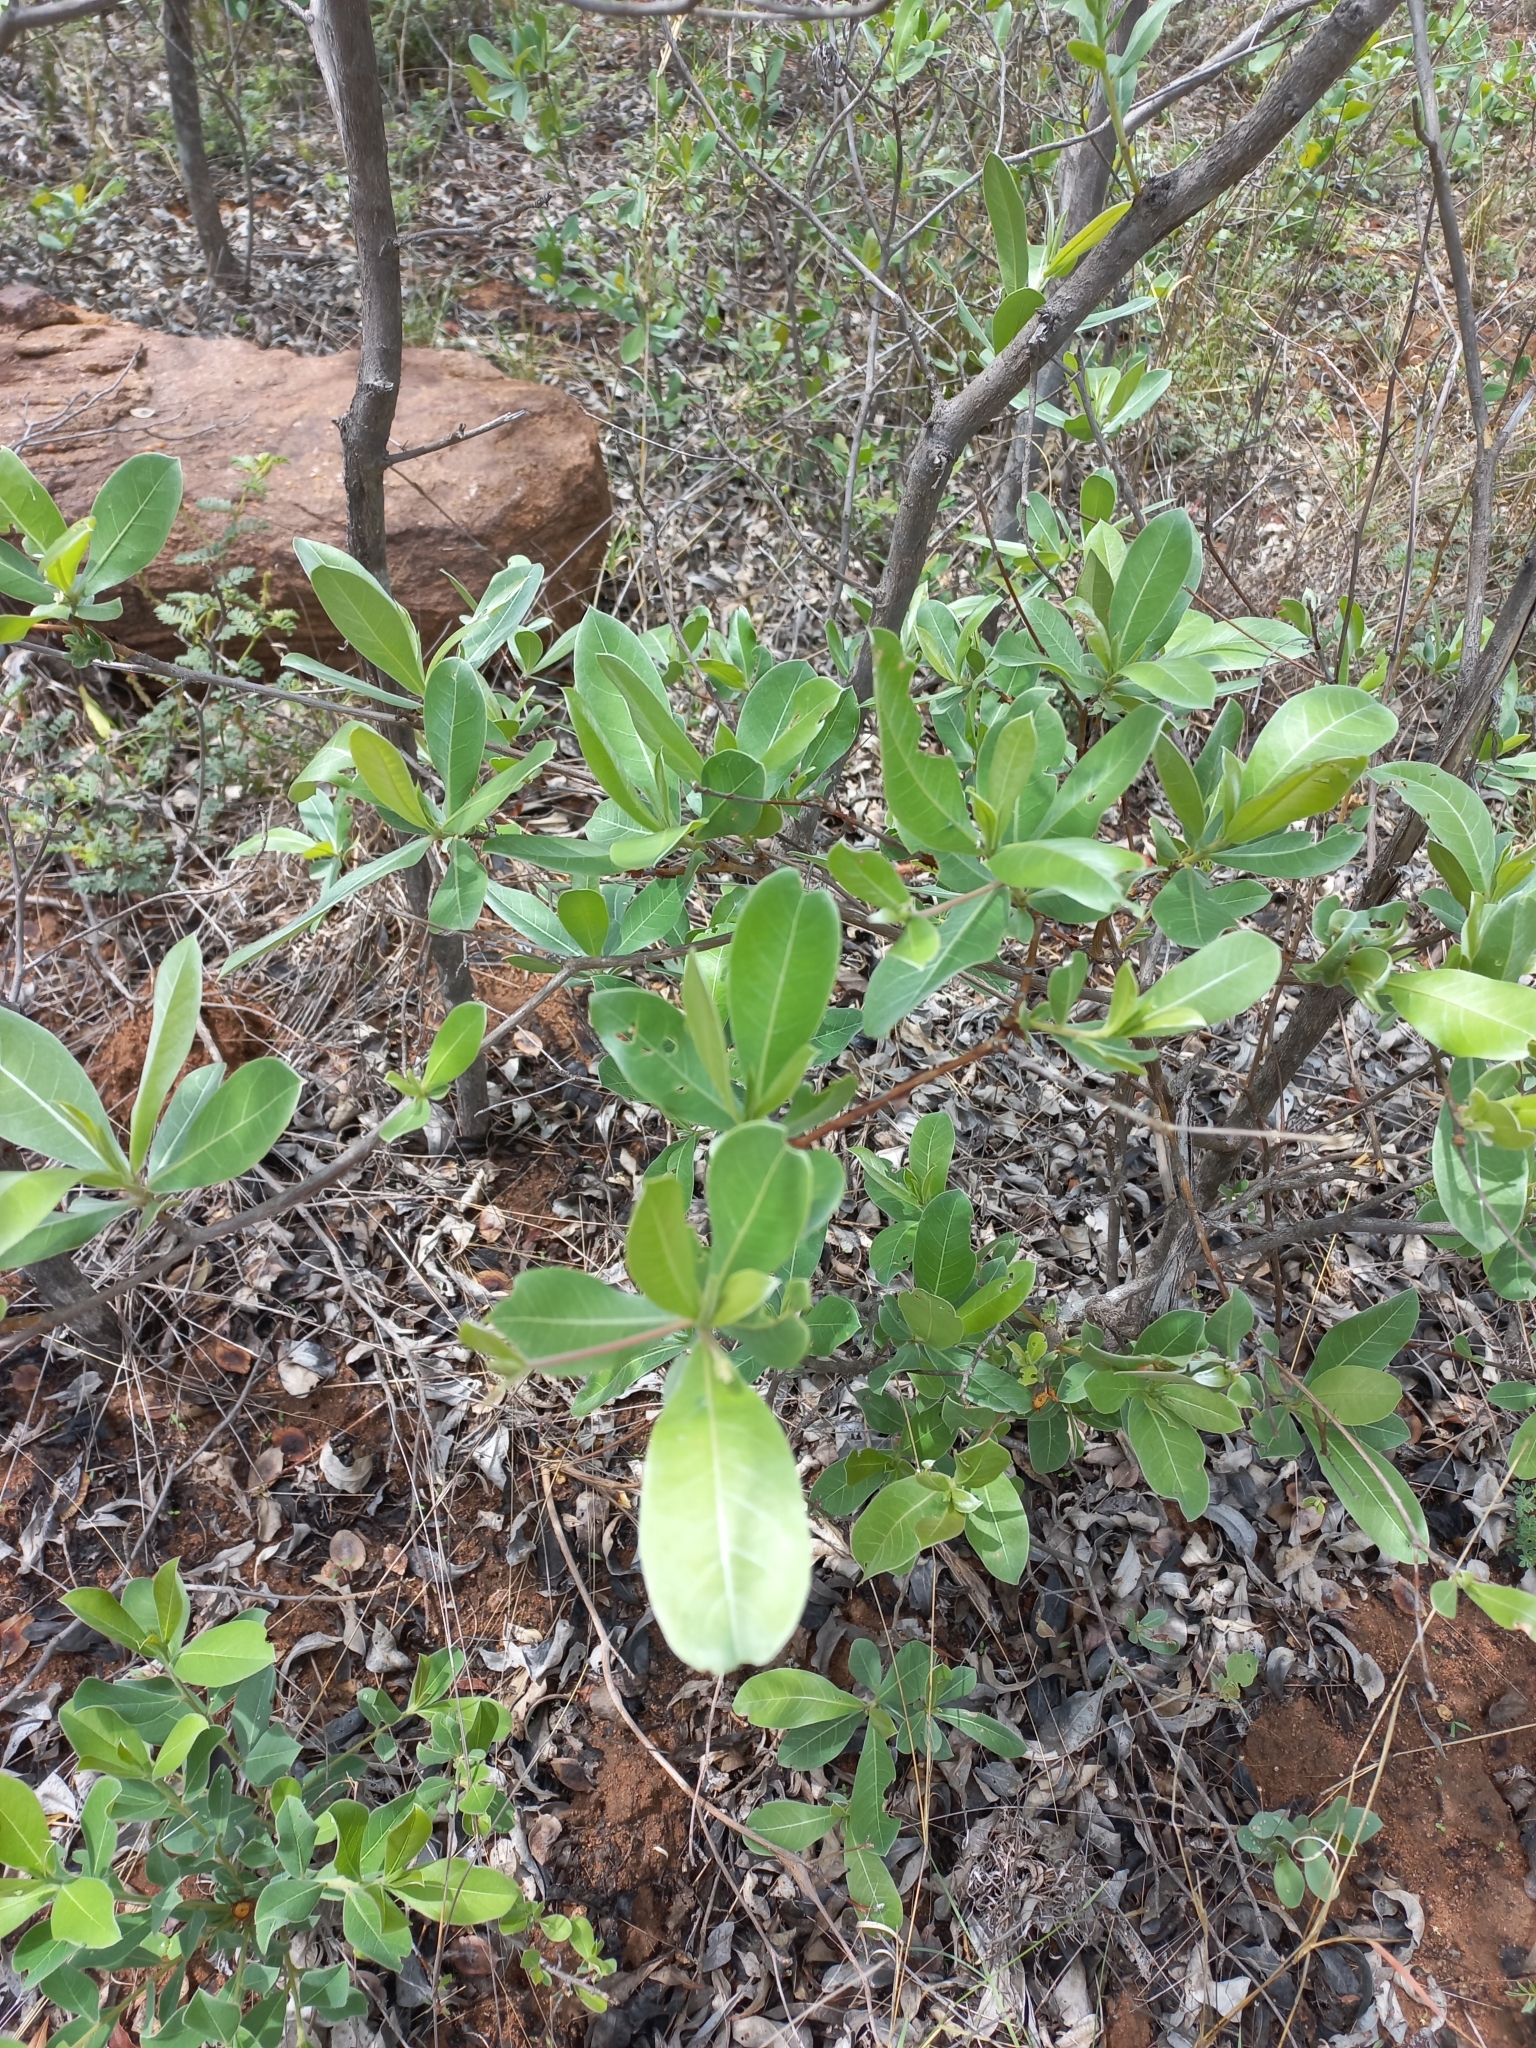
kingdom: Plantae
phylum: Tracheophyta
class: Magnoliopsida
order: Myrtales
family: Combretaceae
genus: Terminalia
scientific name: Terminalia sericea
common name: Clusterleaf
